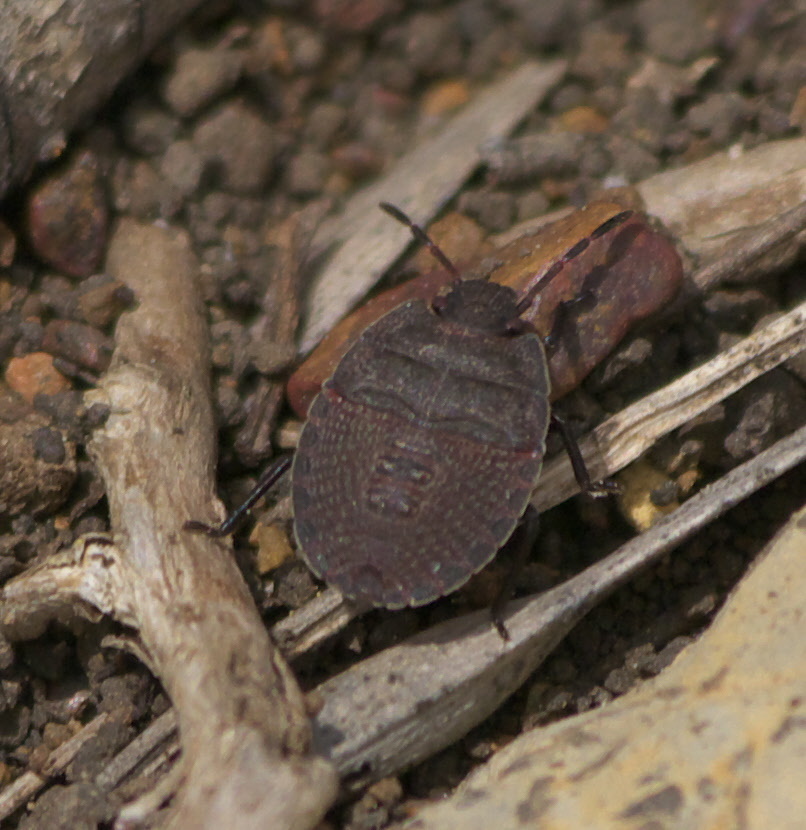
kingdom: Animalia
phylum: Arthropoda
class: Insecta
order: Hemiptera
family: Pentatomidae
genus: Menecles
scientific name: Menecles insertus
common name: Elf shoe stink bug
